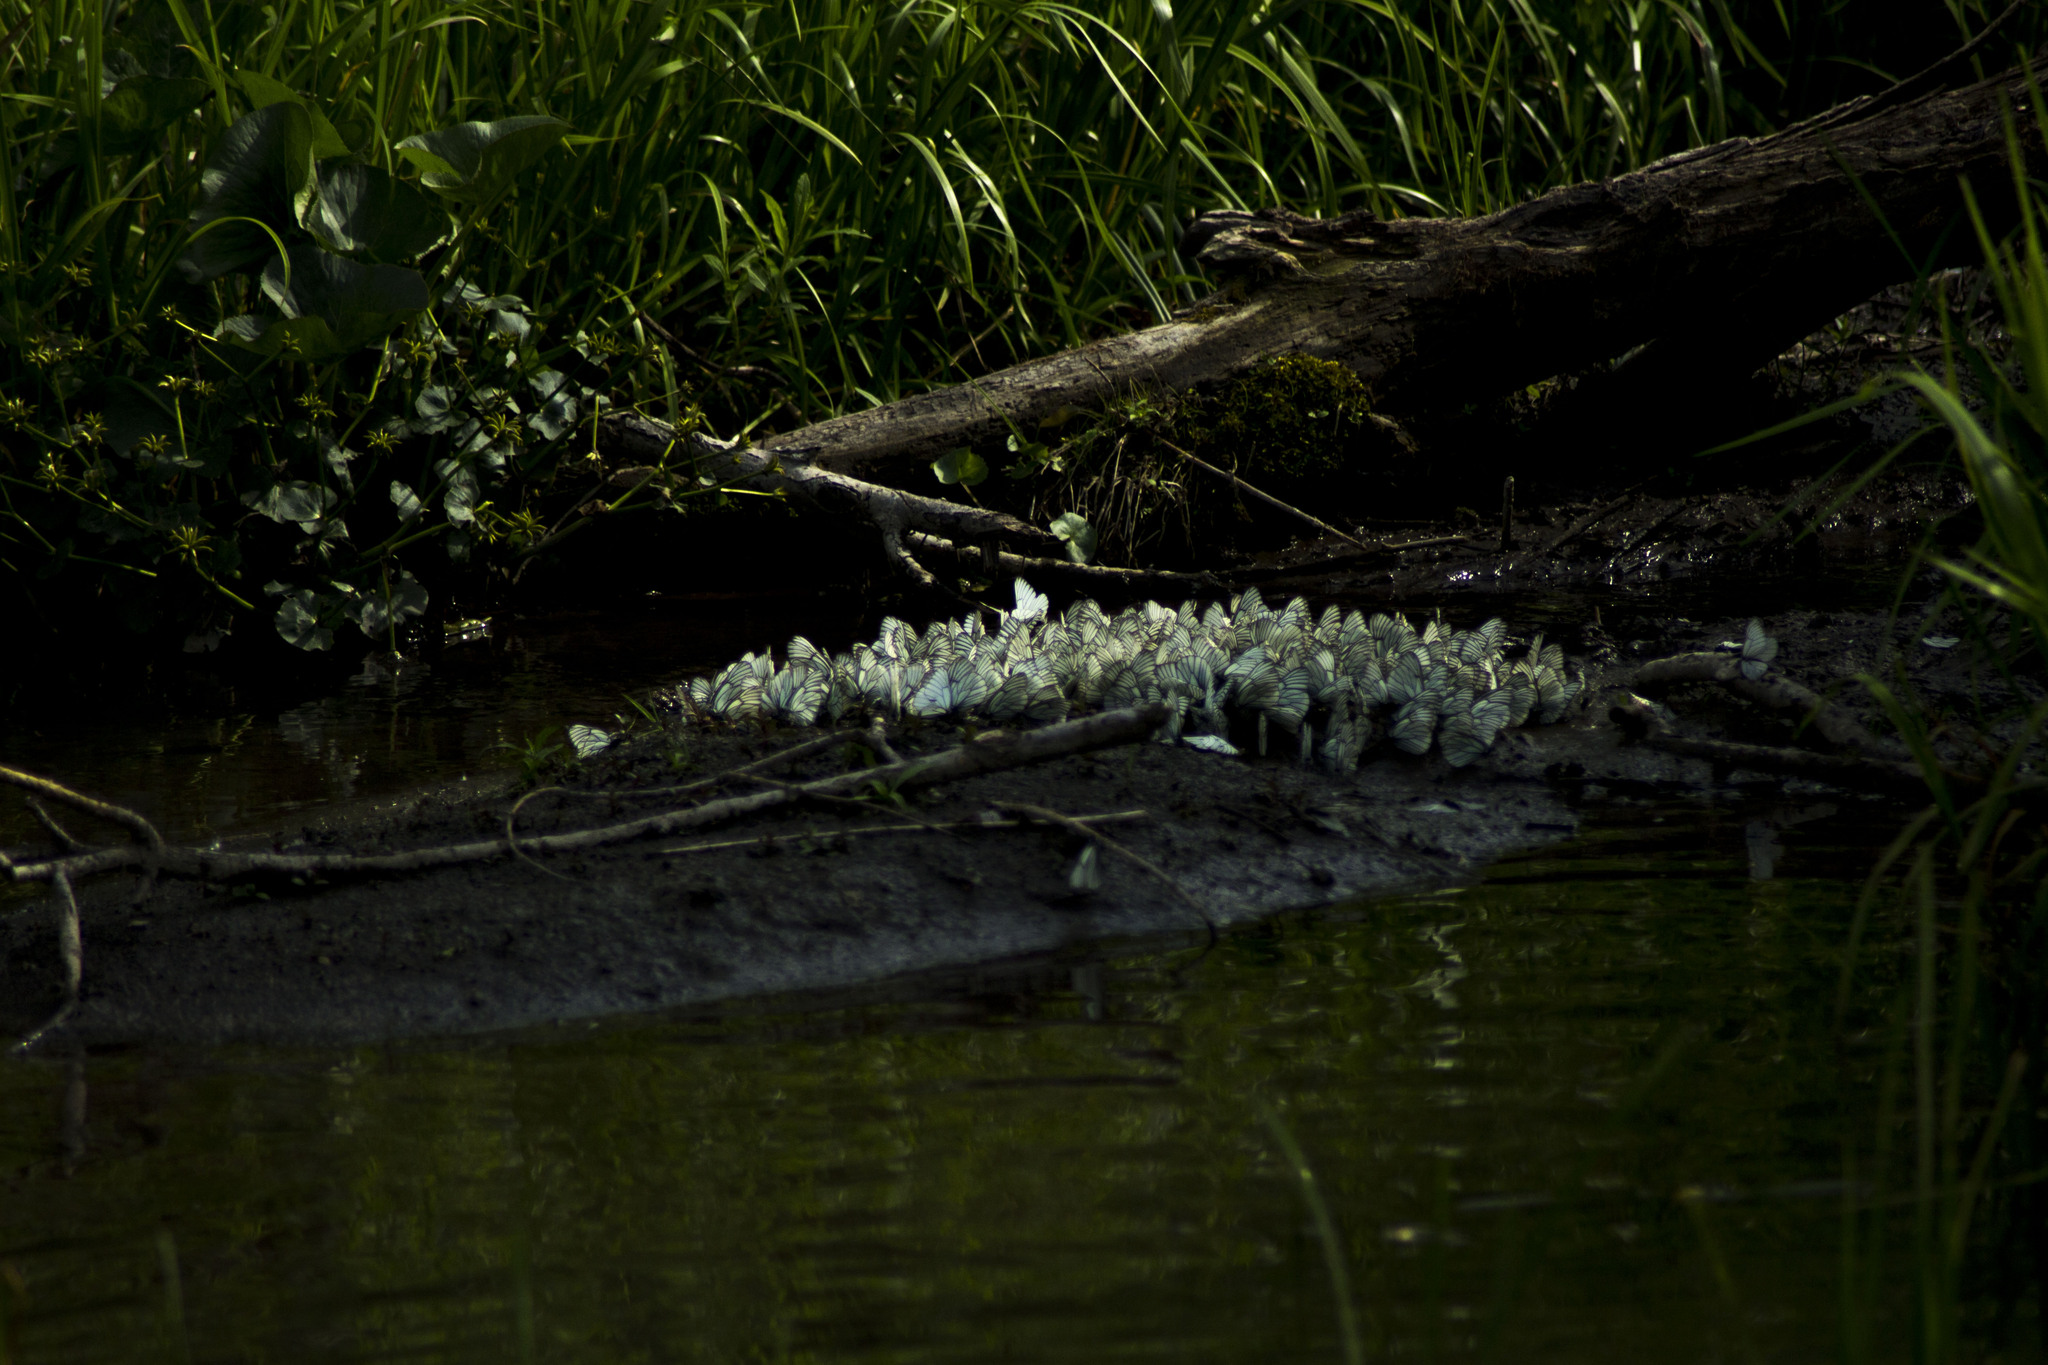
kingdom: Animalia
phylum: Arthropoda
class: Insecta
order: Lepidoptera
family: Pieridae
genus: Aporia
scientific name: Aporia crataegi
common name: Black-veined white
